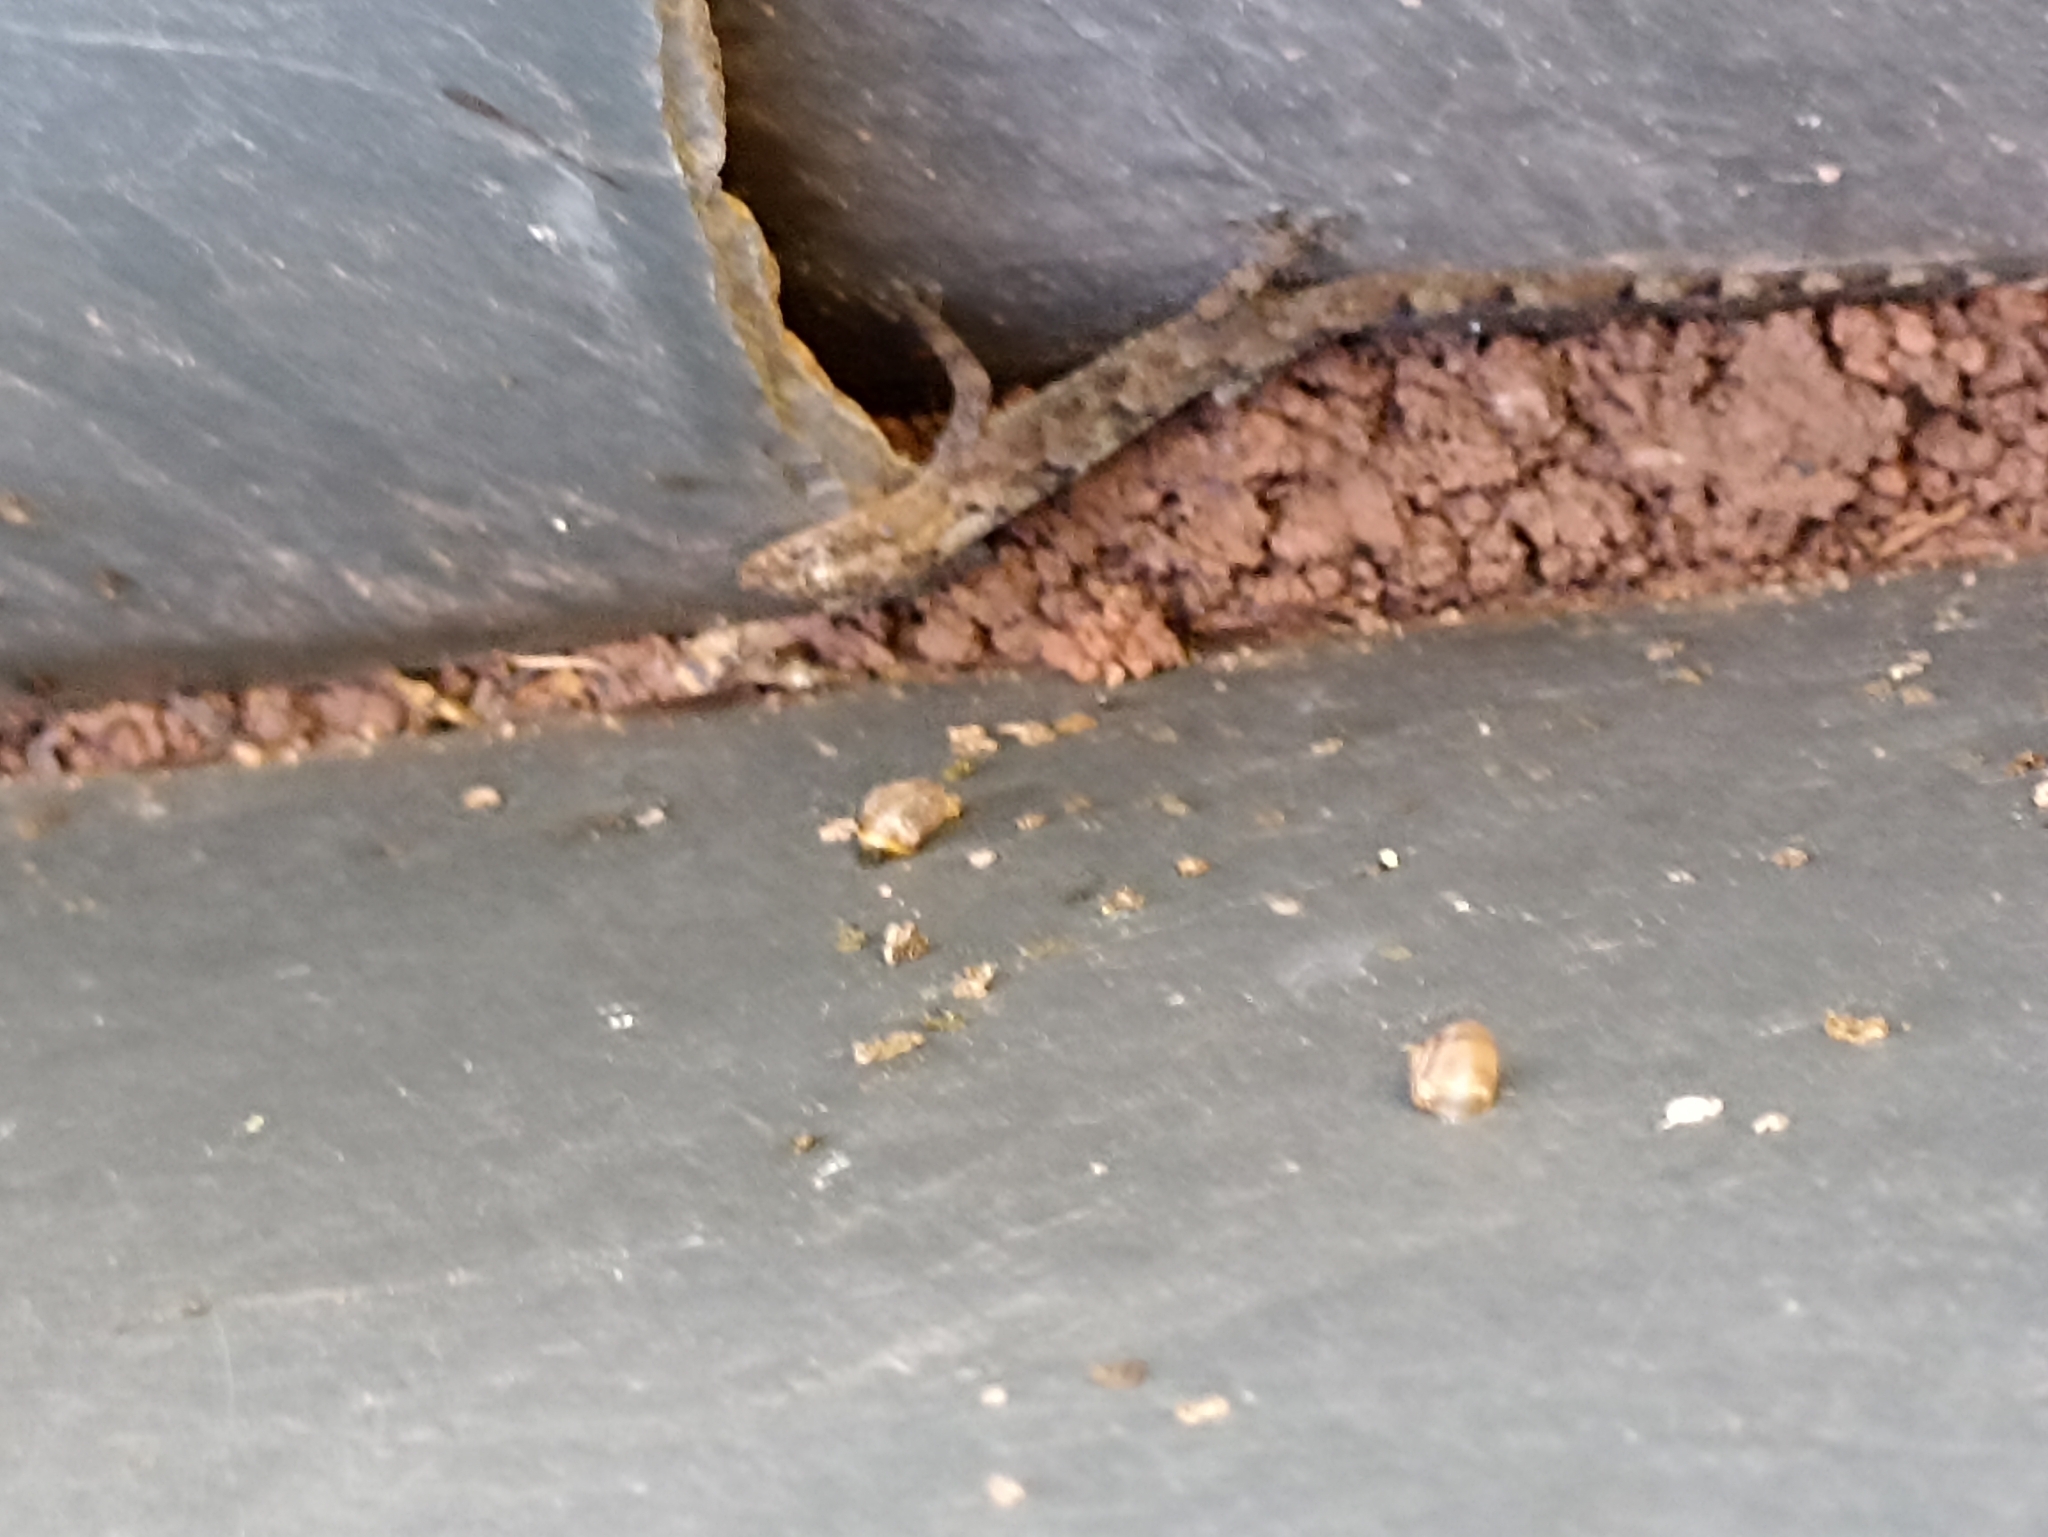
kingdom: Animalia
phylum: Chordata
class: Squamata
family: Gekkonidae
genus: Hemidactylus
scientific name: Hemidactylus mabouia
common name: House gecko
